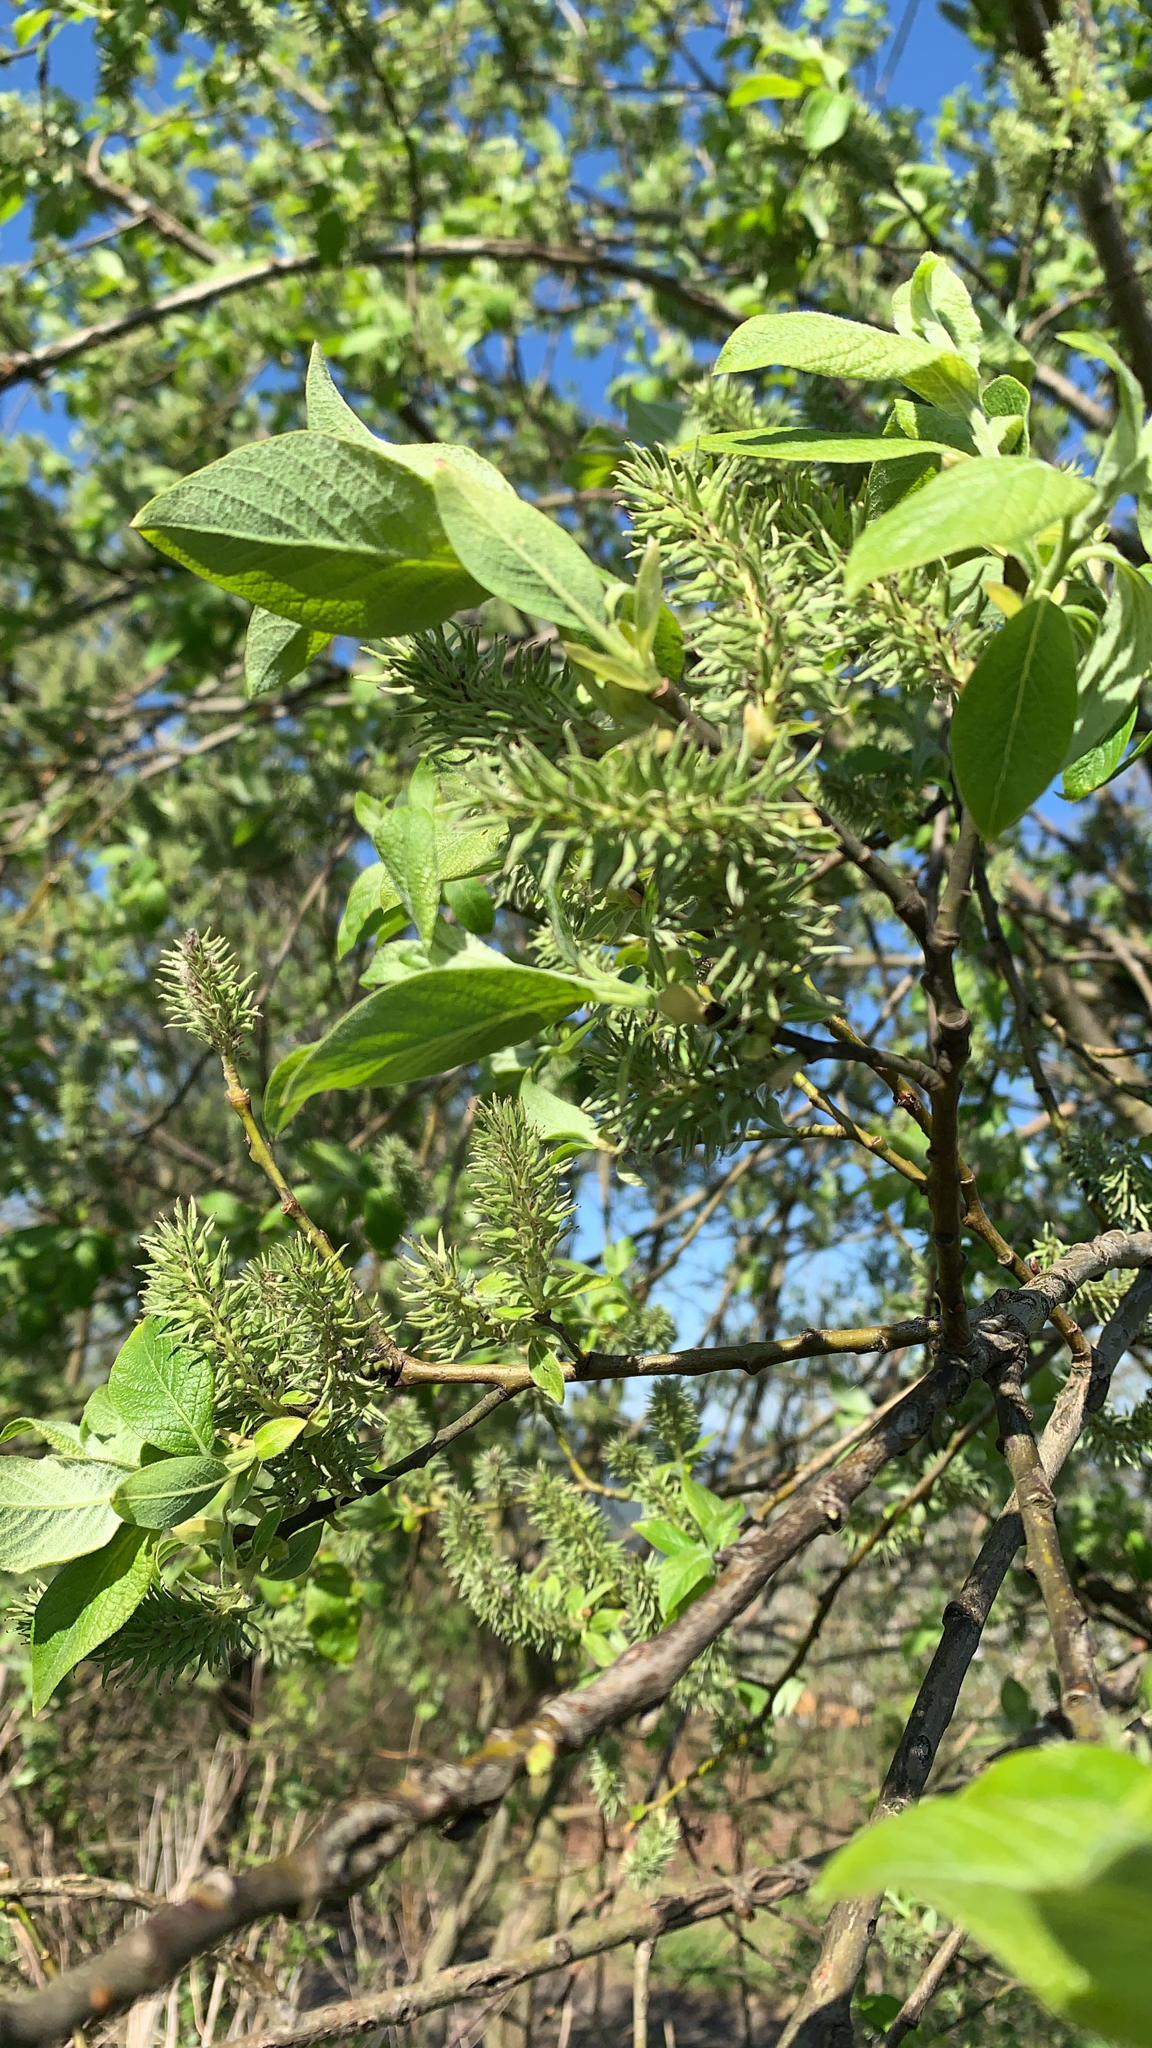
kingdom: Plantae
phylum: Tracheophyta
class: Magnoliopsida
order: Malpighiales
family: Salicaceae
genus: Salix
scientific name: Salix caprea
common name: Goat willow
